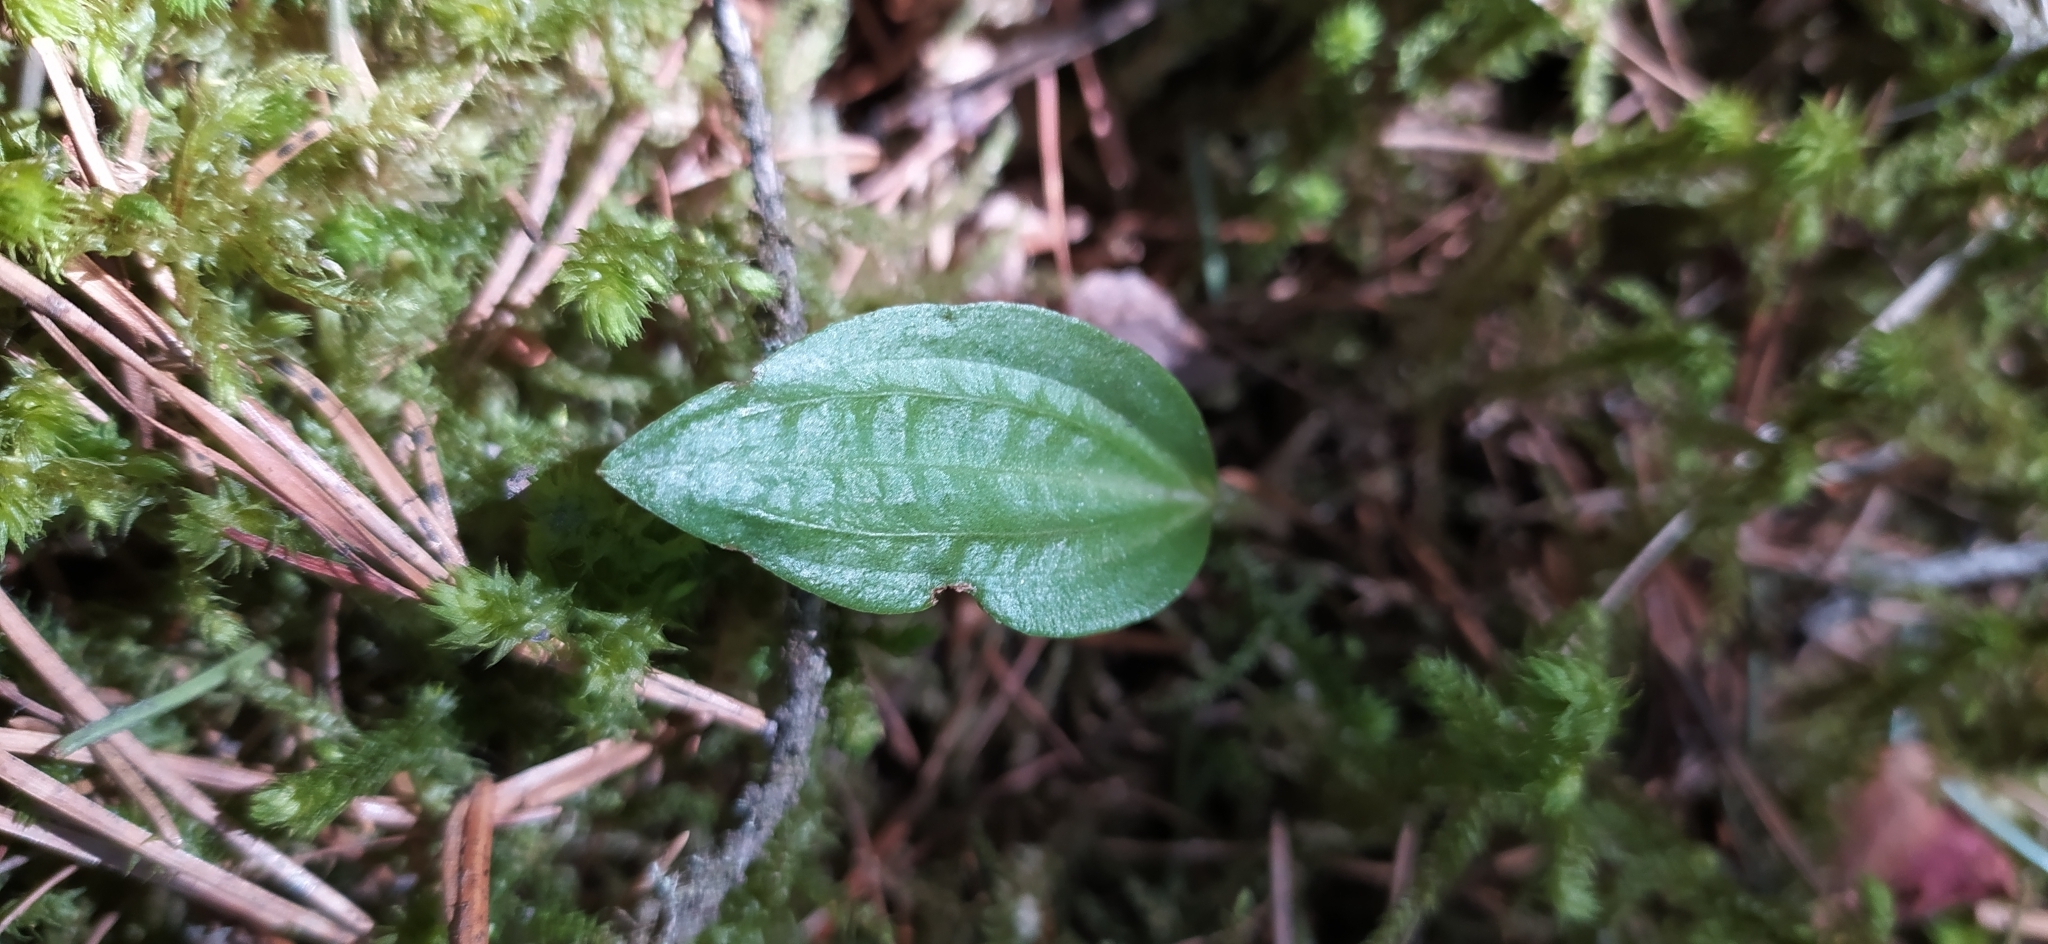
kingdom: Plantae
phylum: Tracheophyta
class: Liliopsida
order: Asparagales
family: Orchidaceae
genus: Calypso
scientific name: Calypso bulbosa
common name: Calypso
